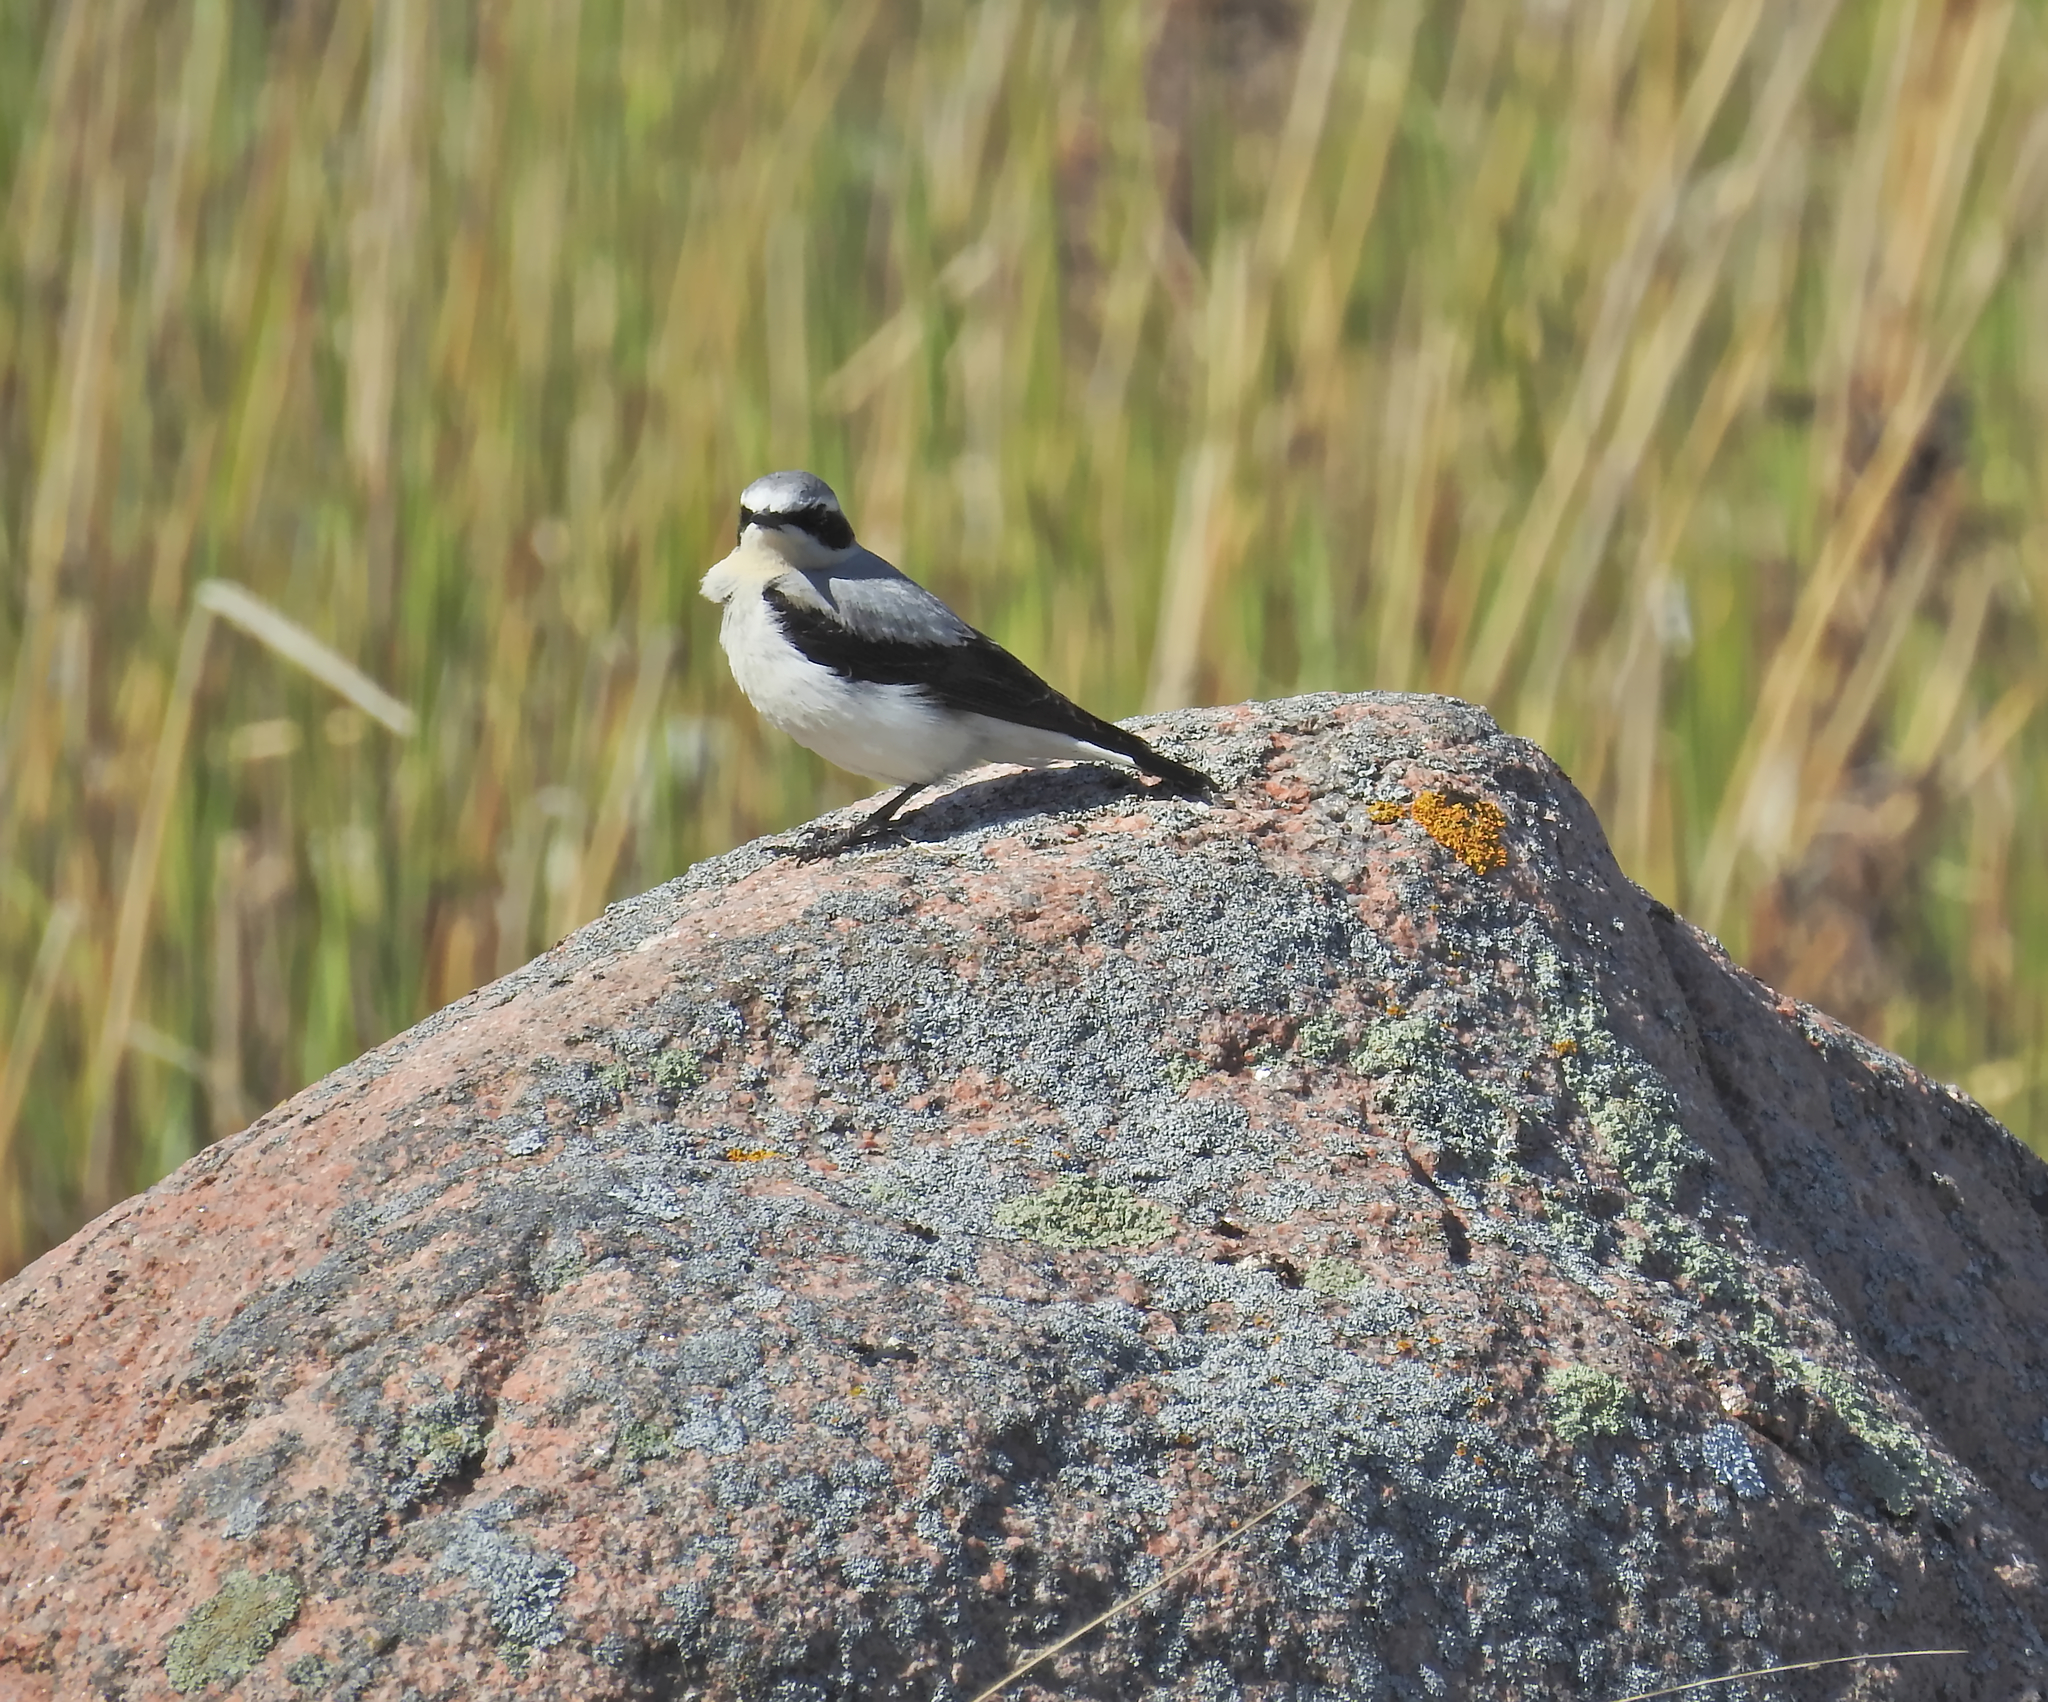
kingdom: Animalia
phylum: Chordata
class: Aves
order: Passeriformes
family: Muscicapidae
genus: Oenanthe
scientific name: Oenanthe oenanthe
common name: Northern wheatear
